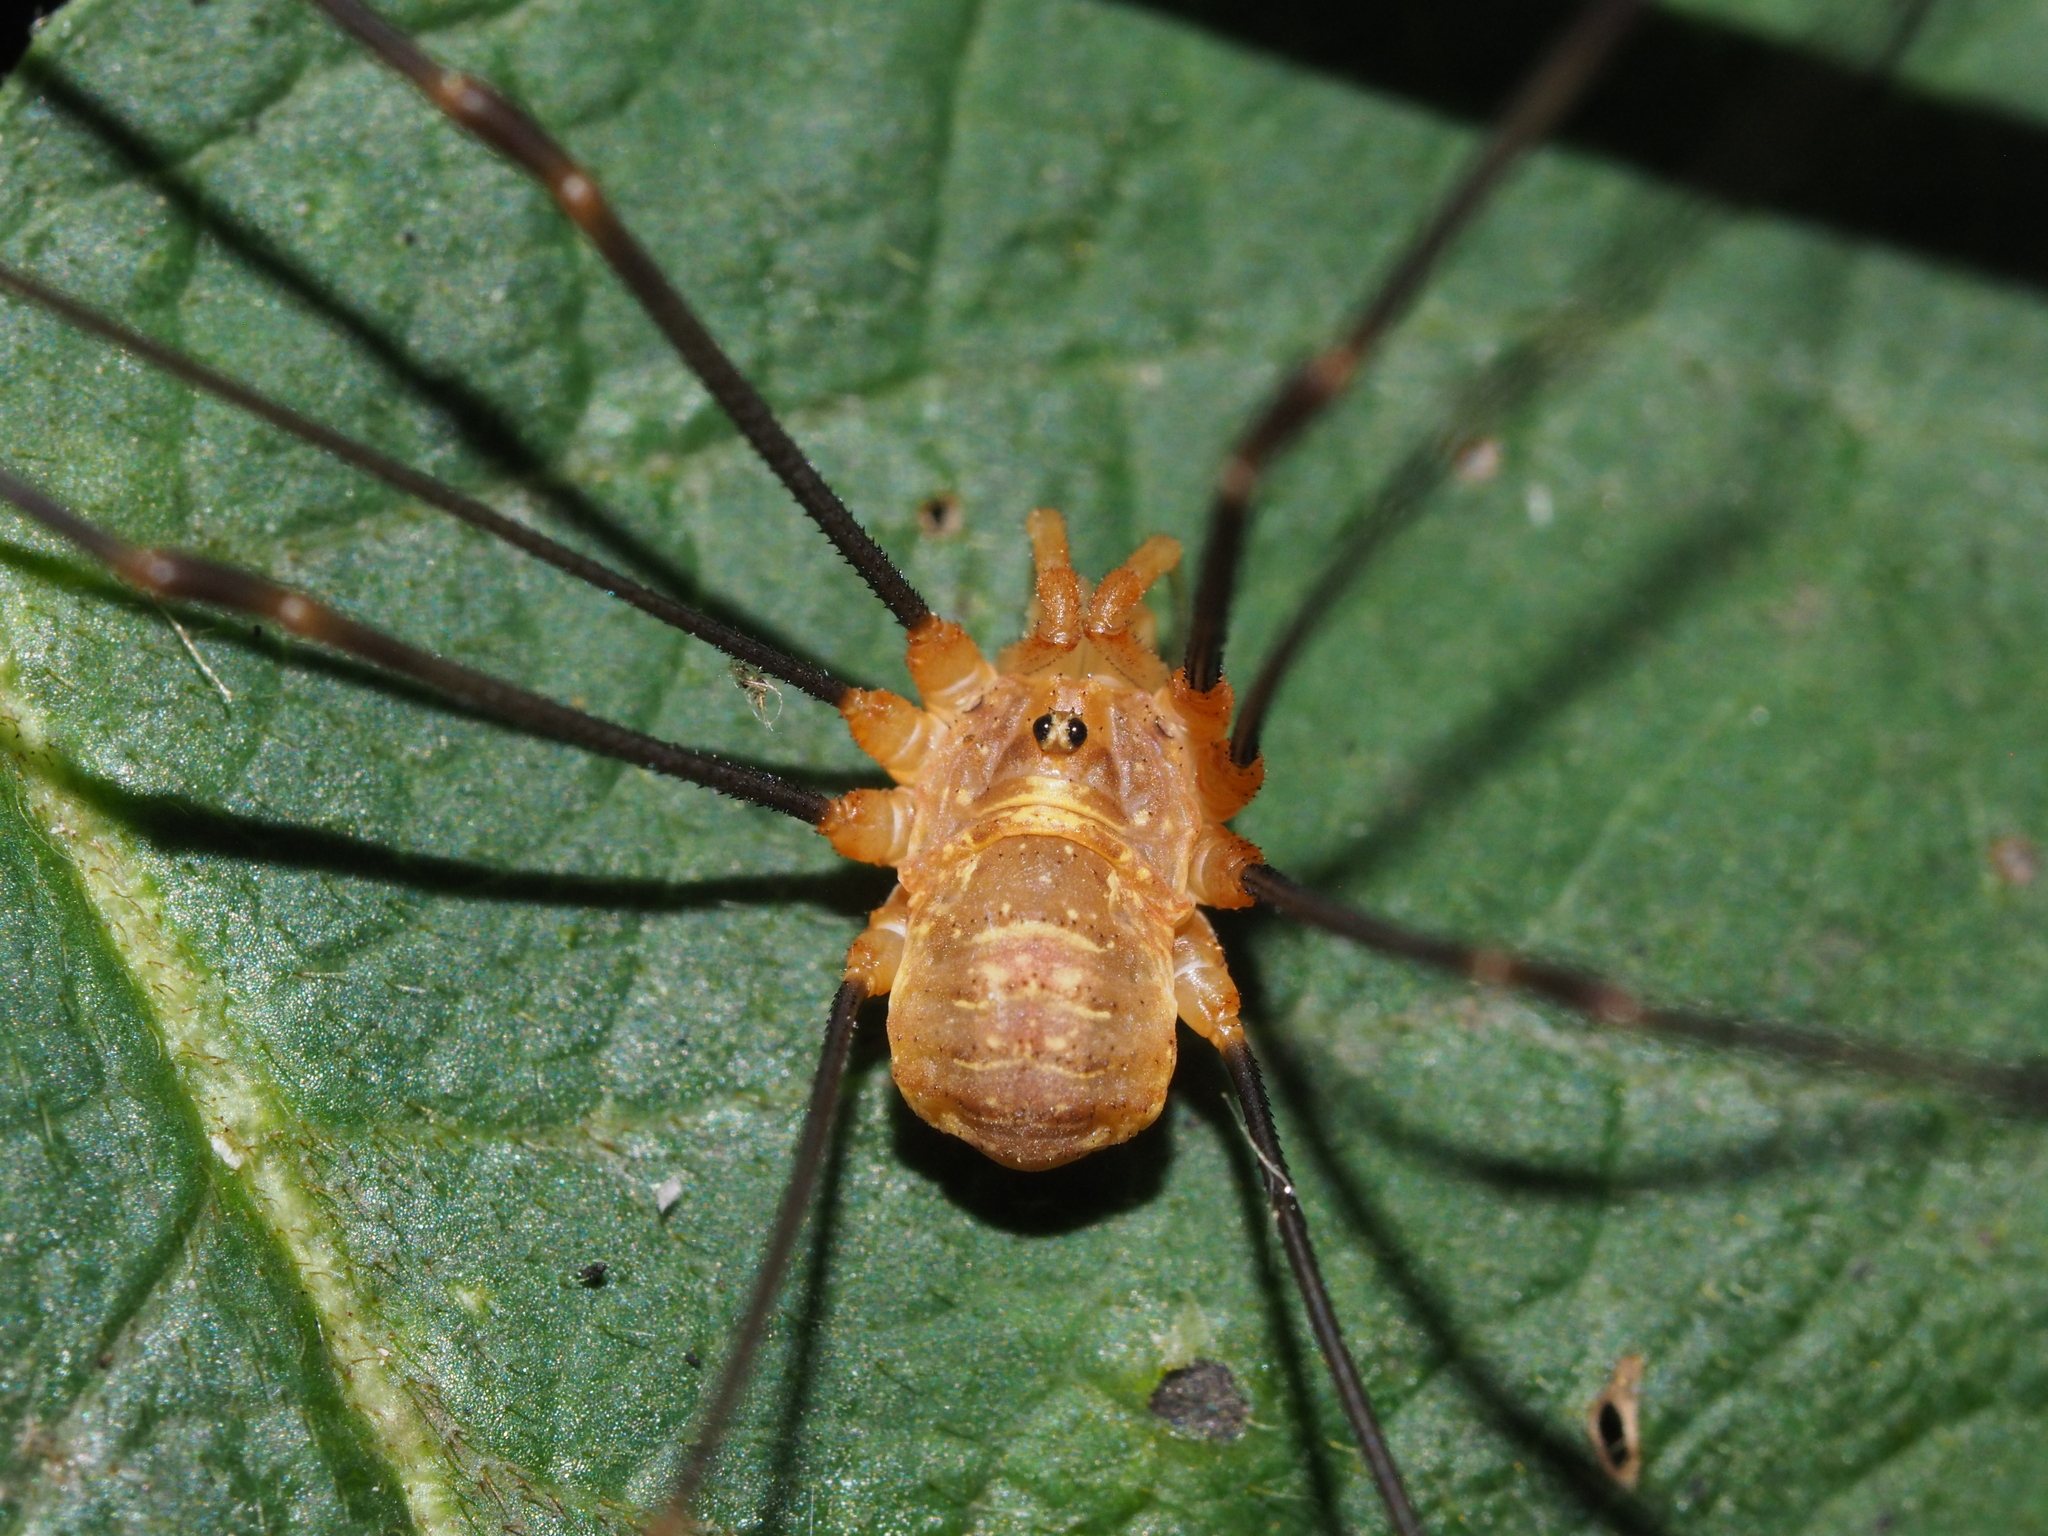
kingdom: Animalia
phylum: Arthropoda
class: Arachnida
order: Opiliones
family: Phalangiidae
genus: Opilio
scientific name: Opilio canestrinii
